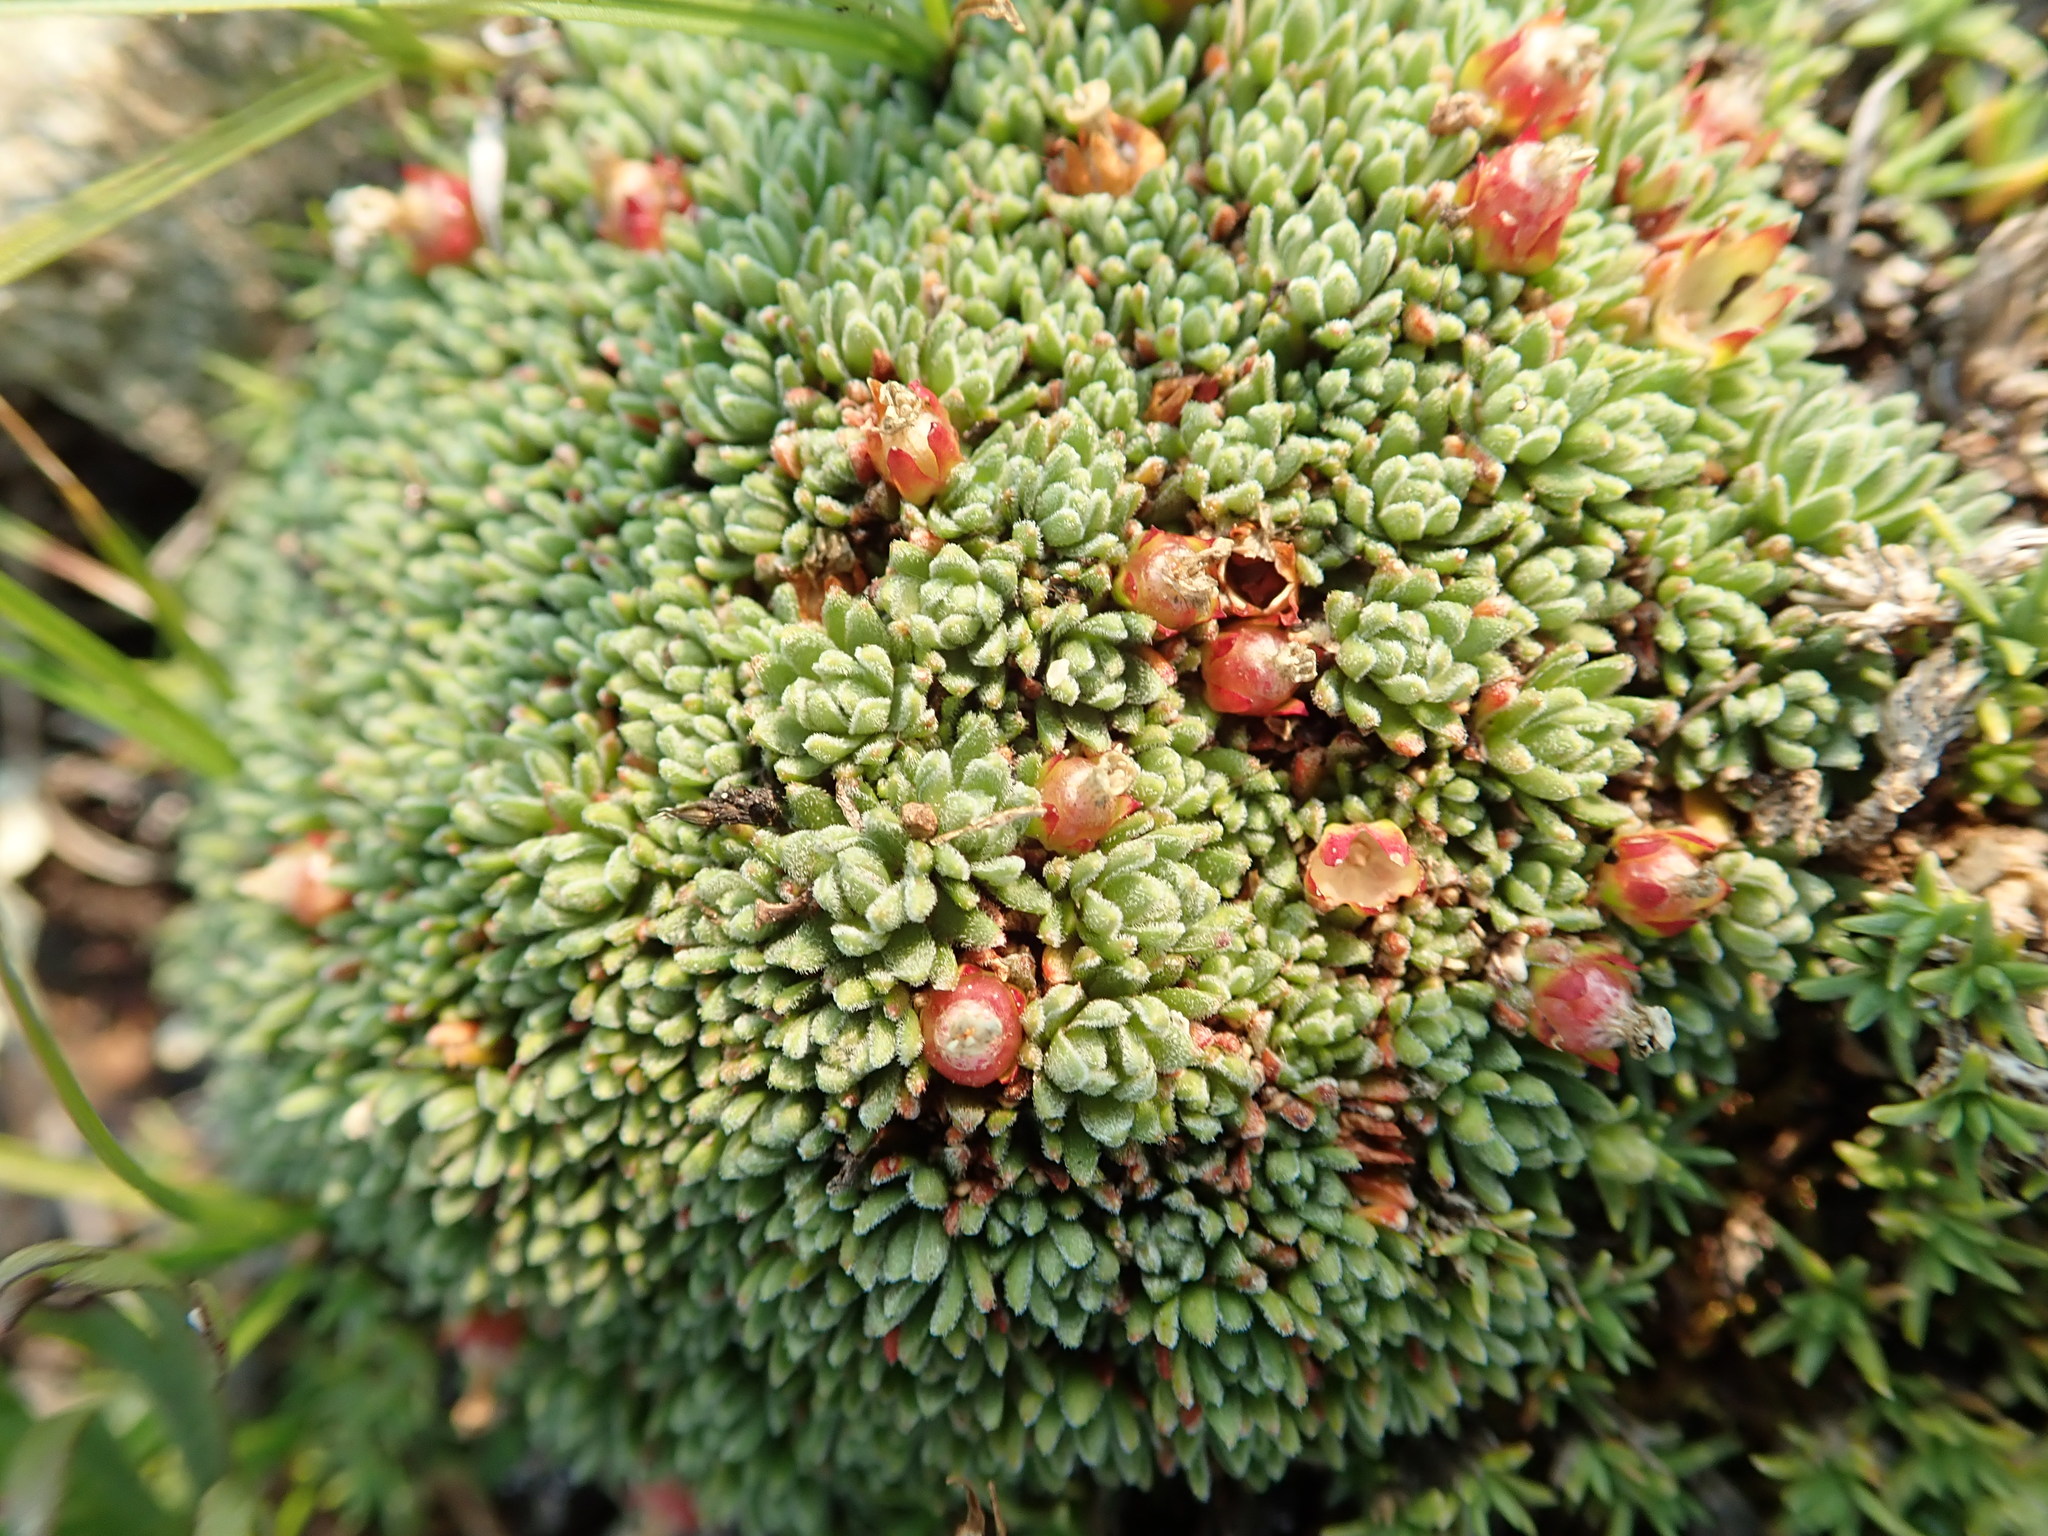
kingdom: Plantae
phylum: Tracheophyta
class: Magnoliopsida
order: Ericales
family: Primulaceae
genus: Androsace
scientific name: Androsace constancei
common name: Gorman's dwarf-primrose
